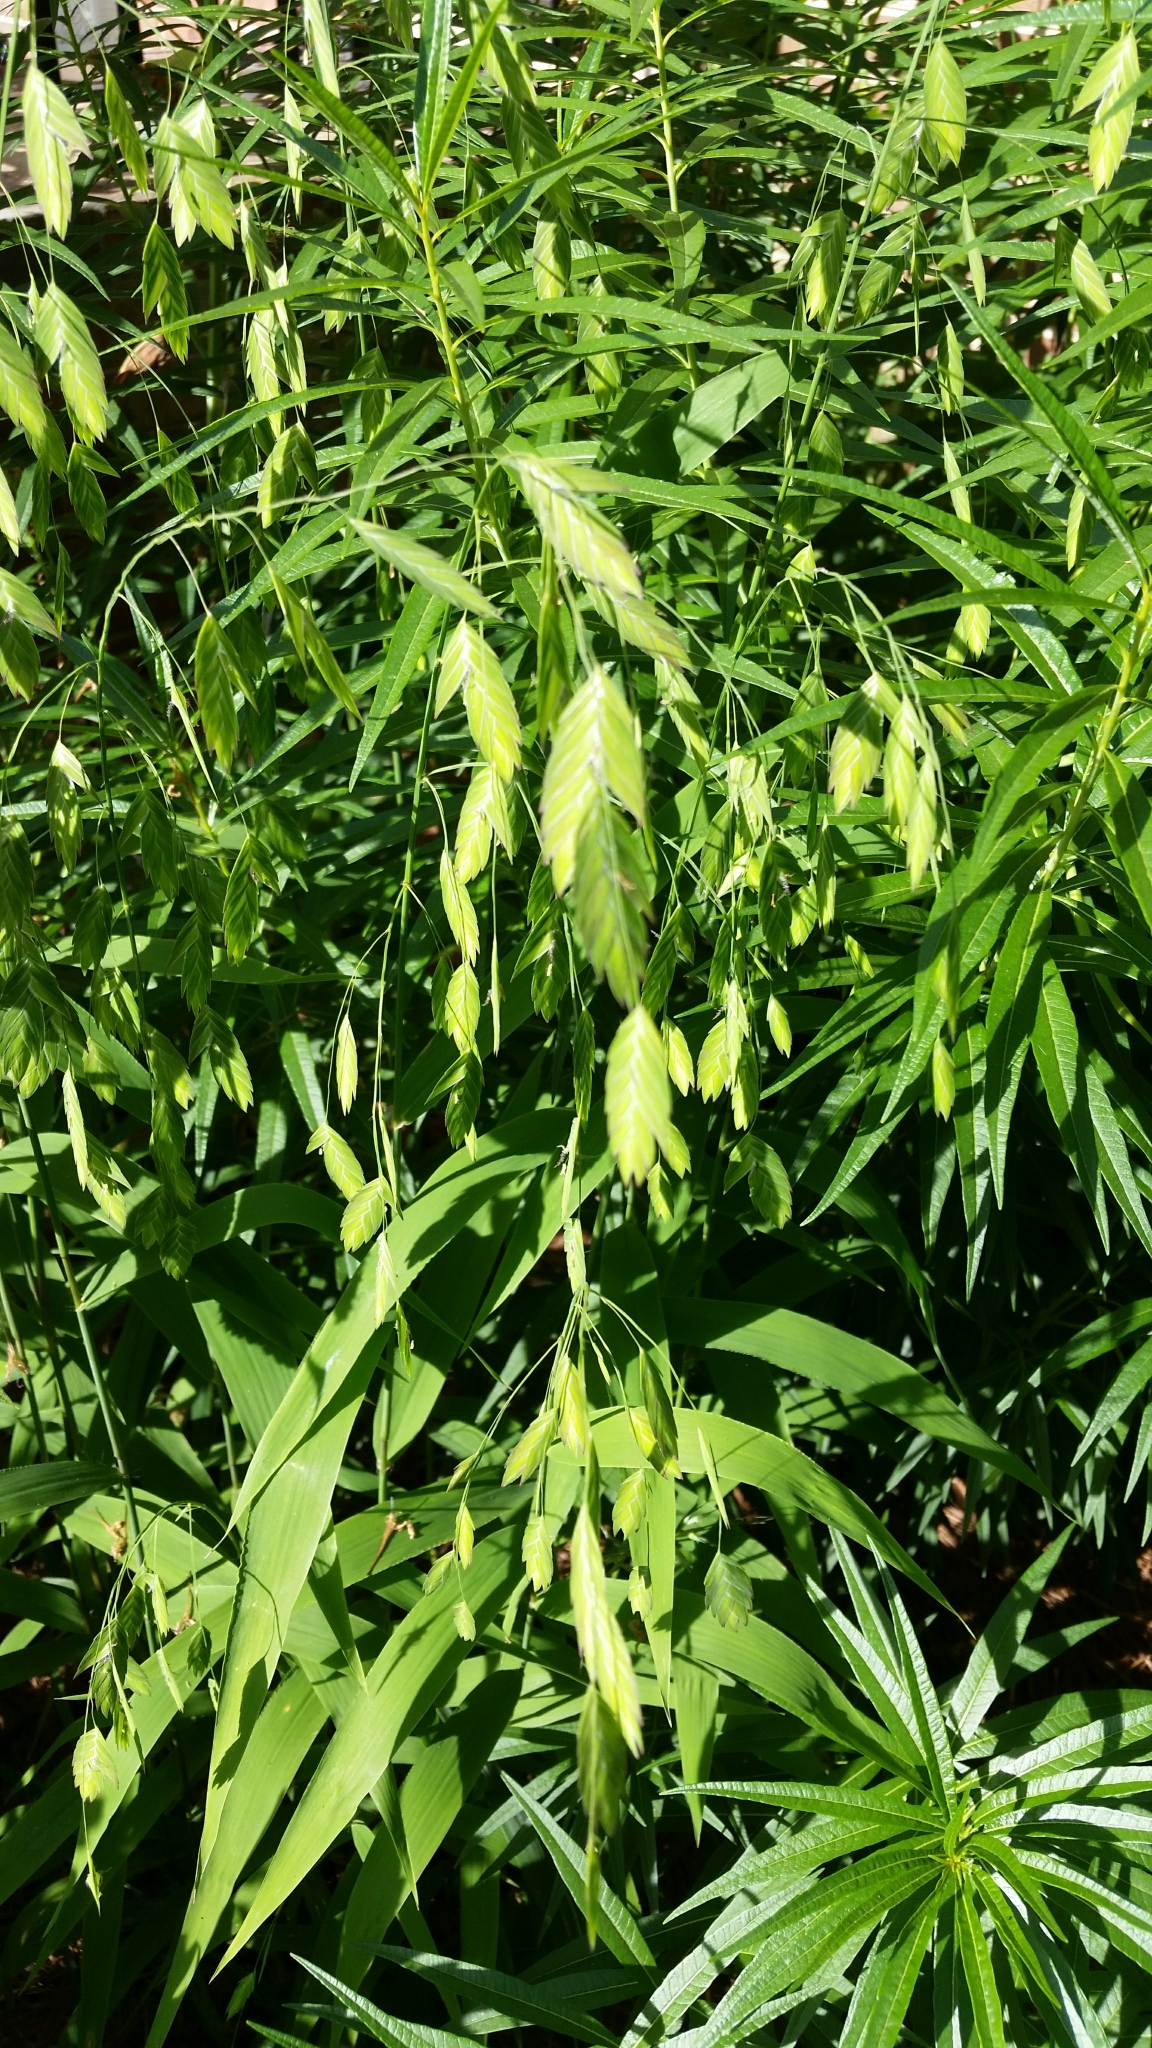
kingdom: Plantae
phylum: Tracheophyta
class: Liliopsida
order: Poales
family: Poaceae
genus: Chasmanthium
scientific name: Chasmanthium latifolium
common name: Broad-leaved chasmanthium
